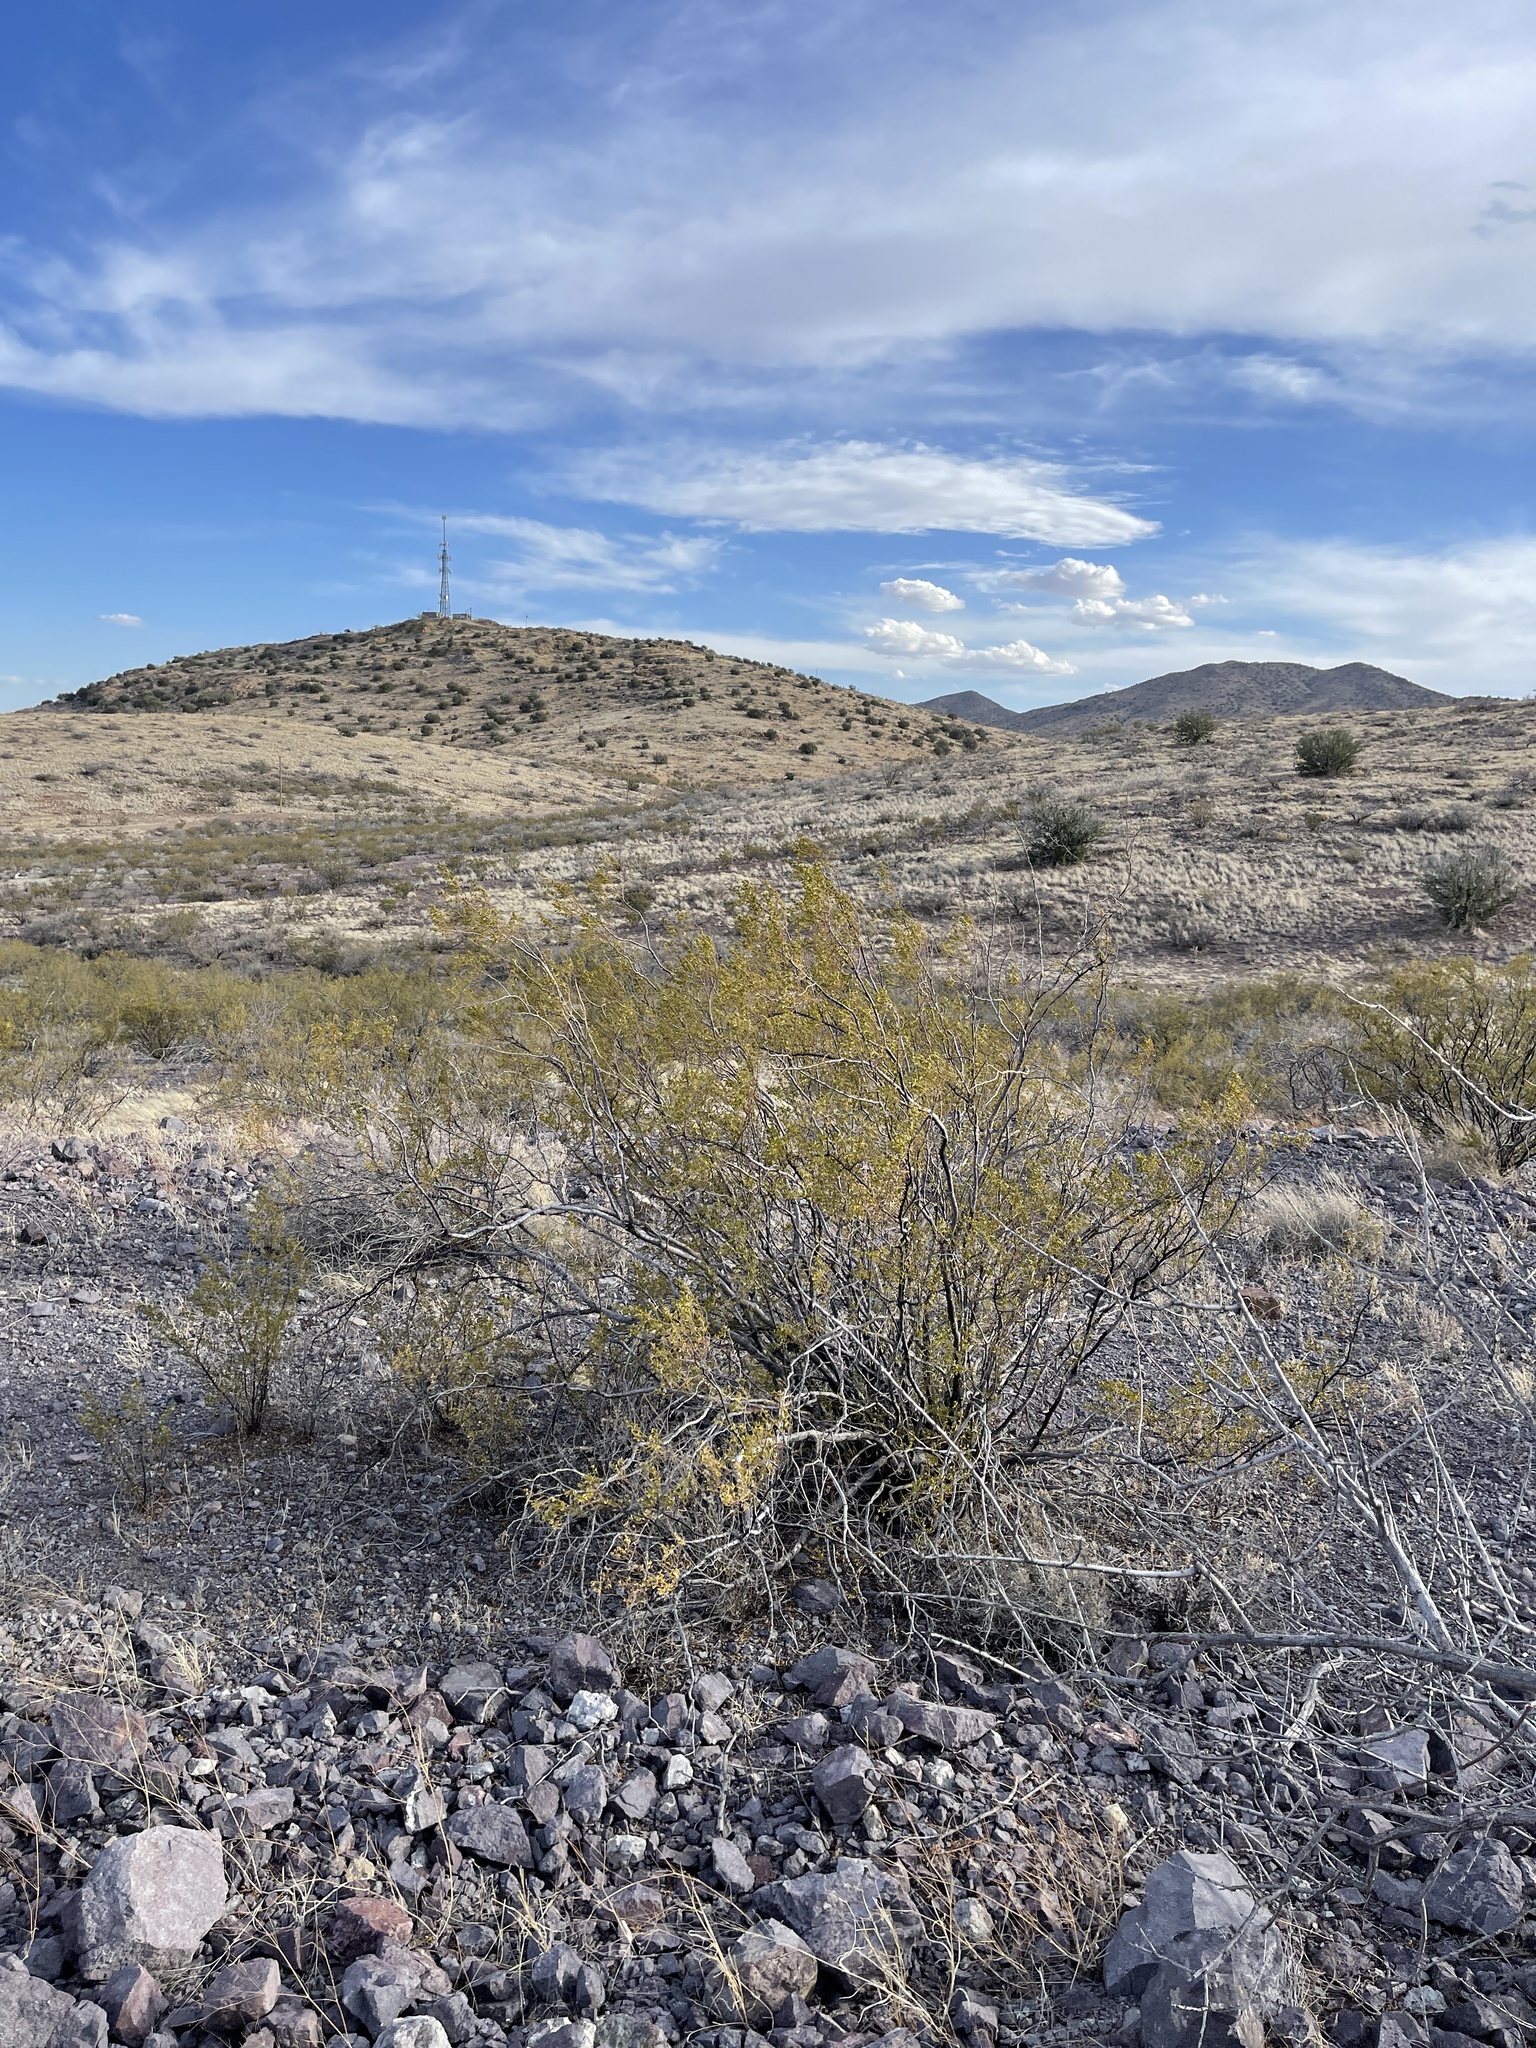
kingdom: Plantae
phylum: Tracheophyta
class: Magnoliopsida
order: Zygophyllales
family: Zygophyllaceae
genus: Larrea
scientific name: Larrea tridentata
